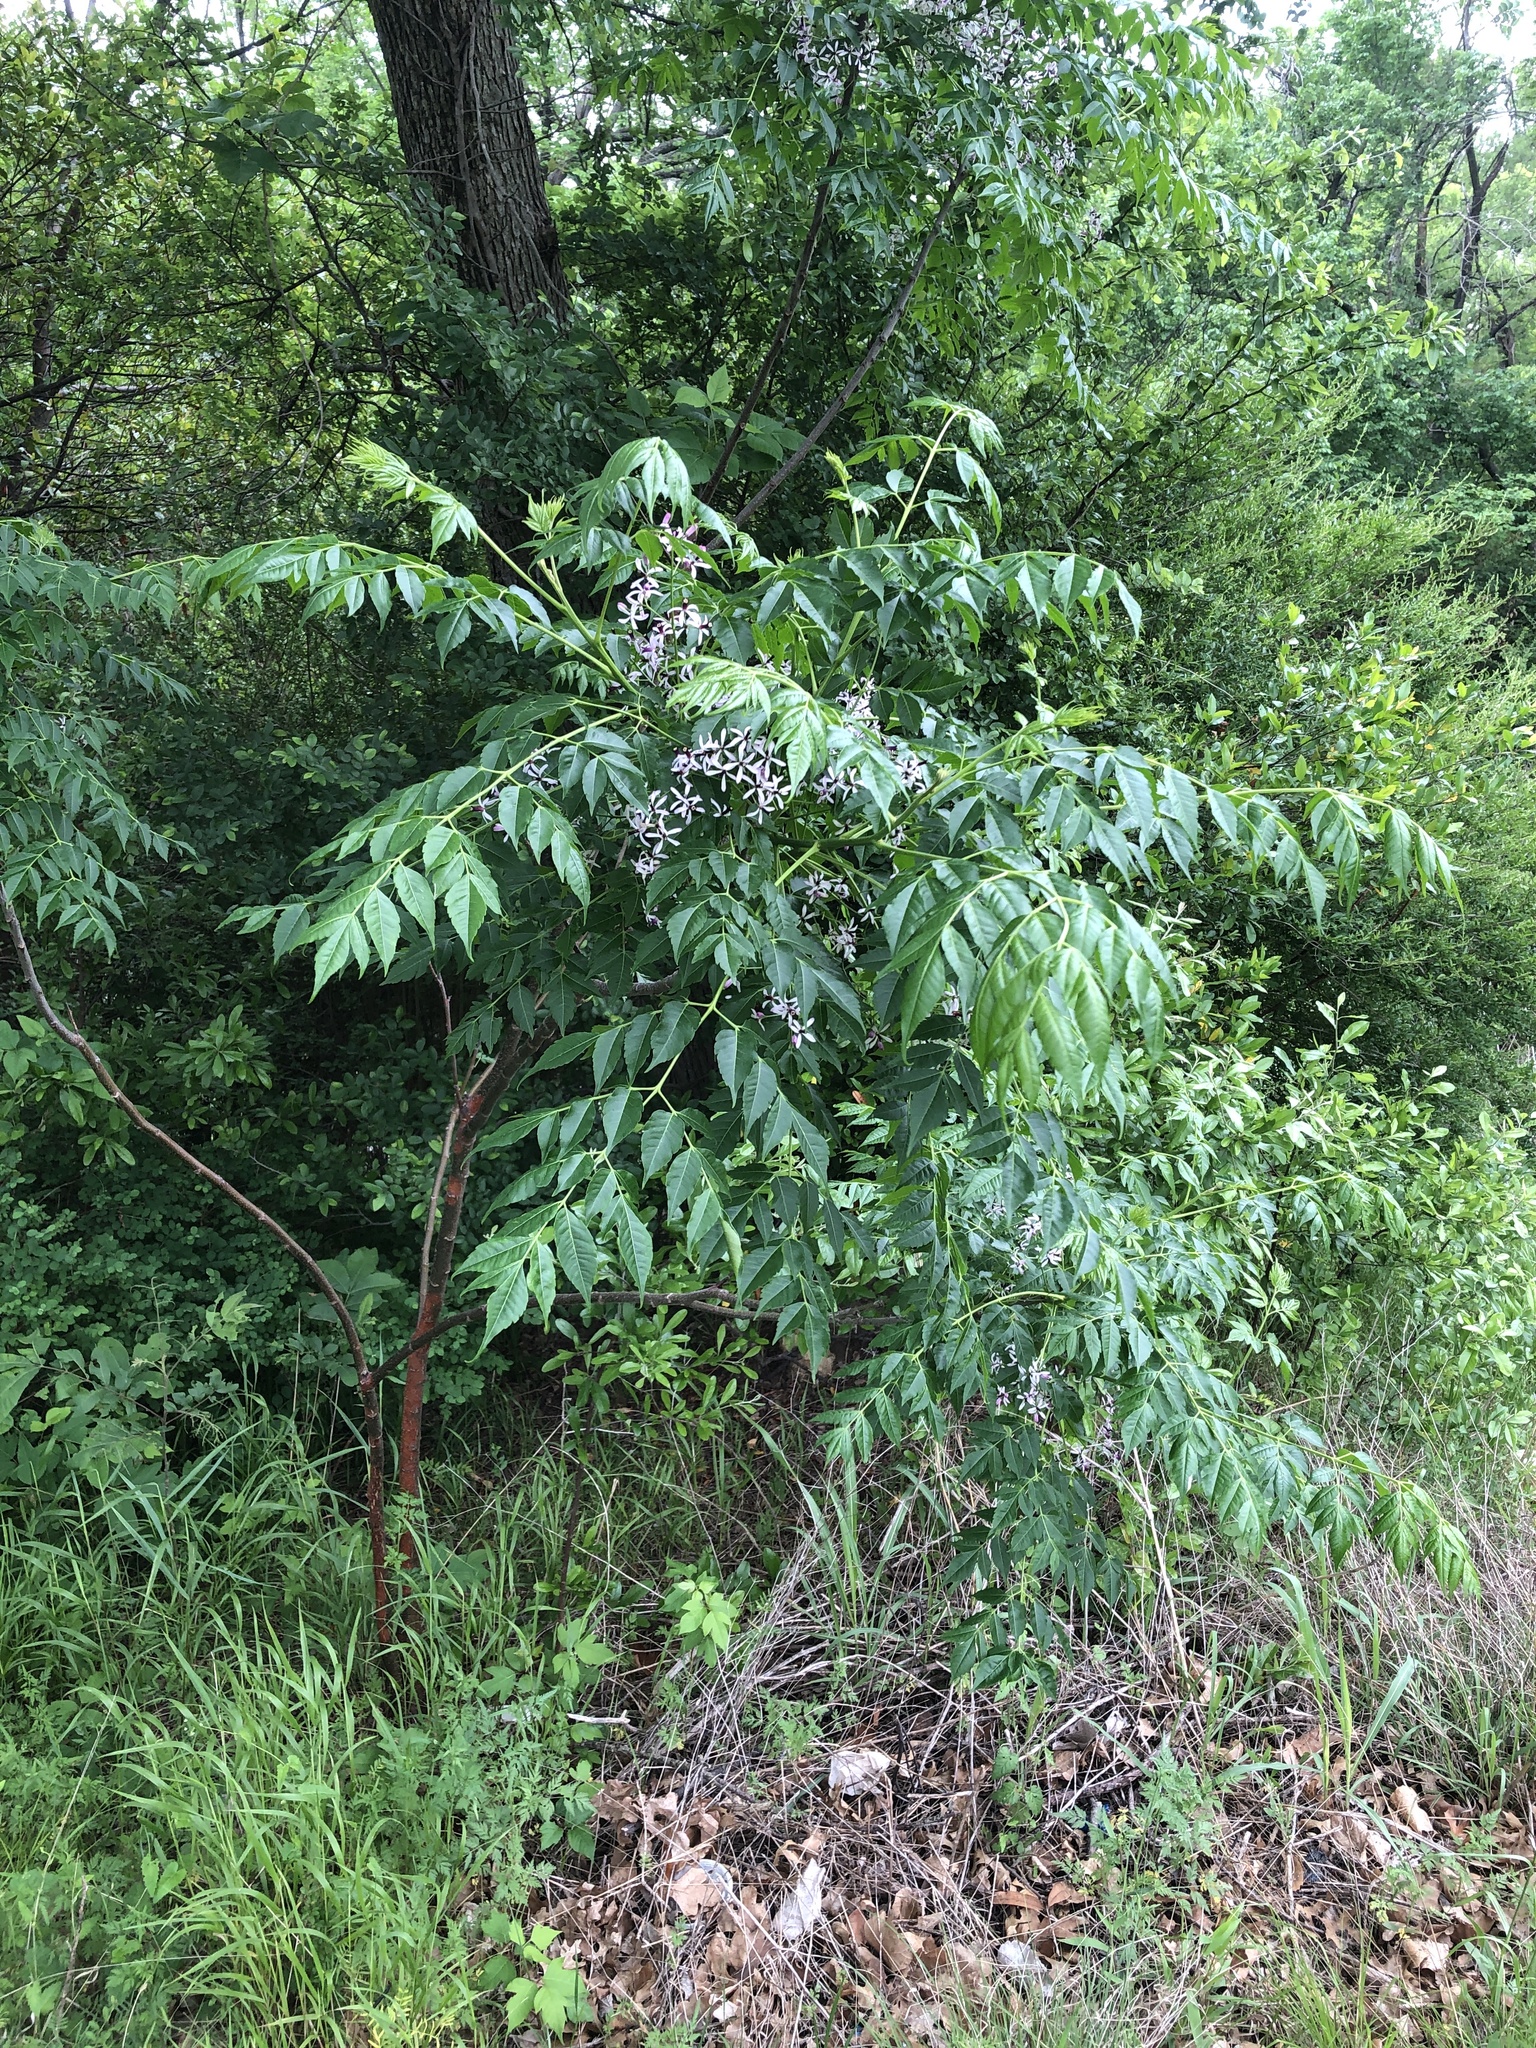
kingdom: Plantae
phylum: Tracheophyta
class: Magnoliopsida
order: Sapindales
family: Meliaceae
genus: Melia
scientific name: Melia azedarach
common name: Chinaberrytree
